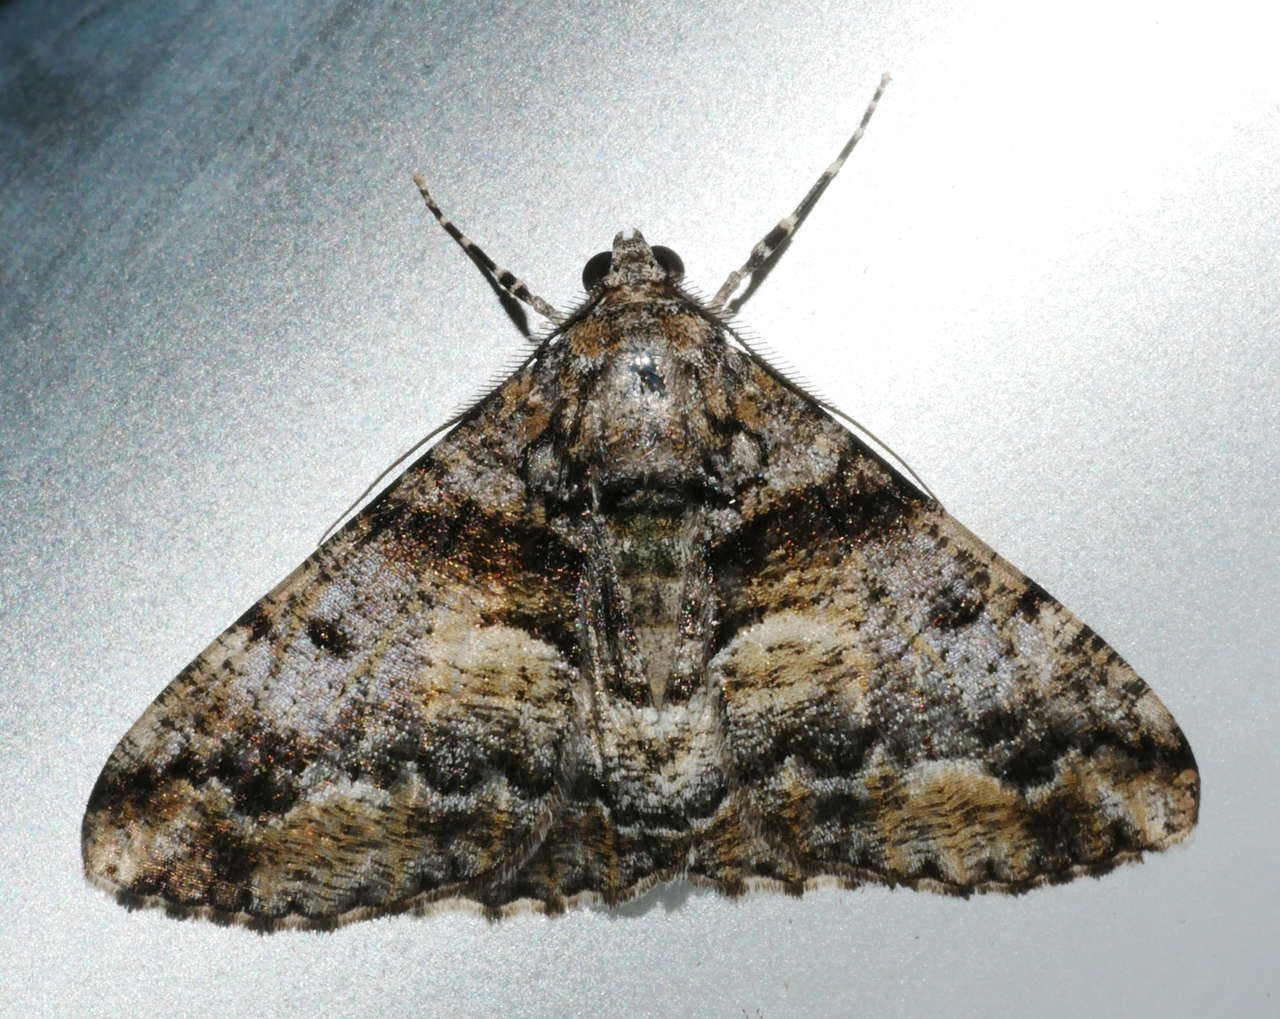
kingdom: Animalia
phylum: Arthropoda
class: Insecta
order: Lepidoptera
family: Geometridae
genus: Gastrinodes
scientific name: Gastrinodes argoplaca
